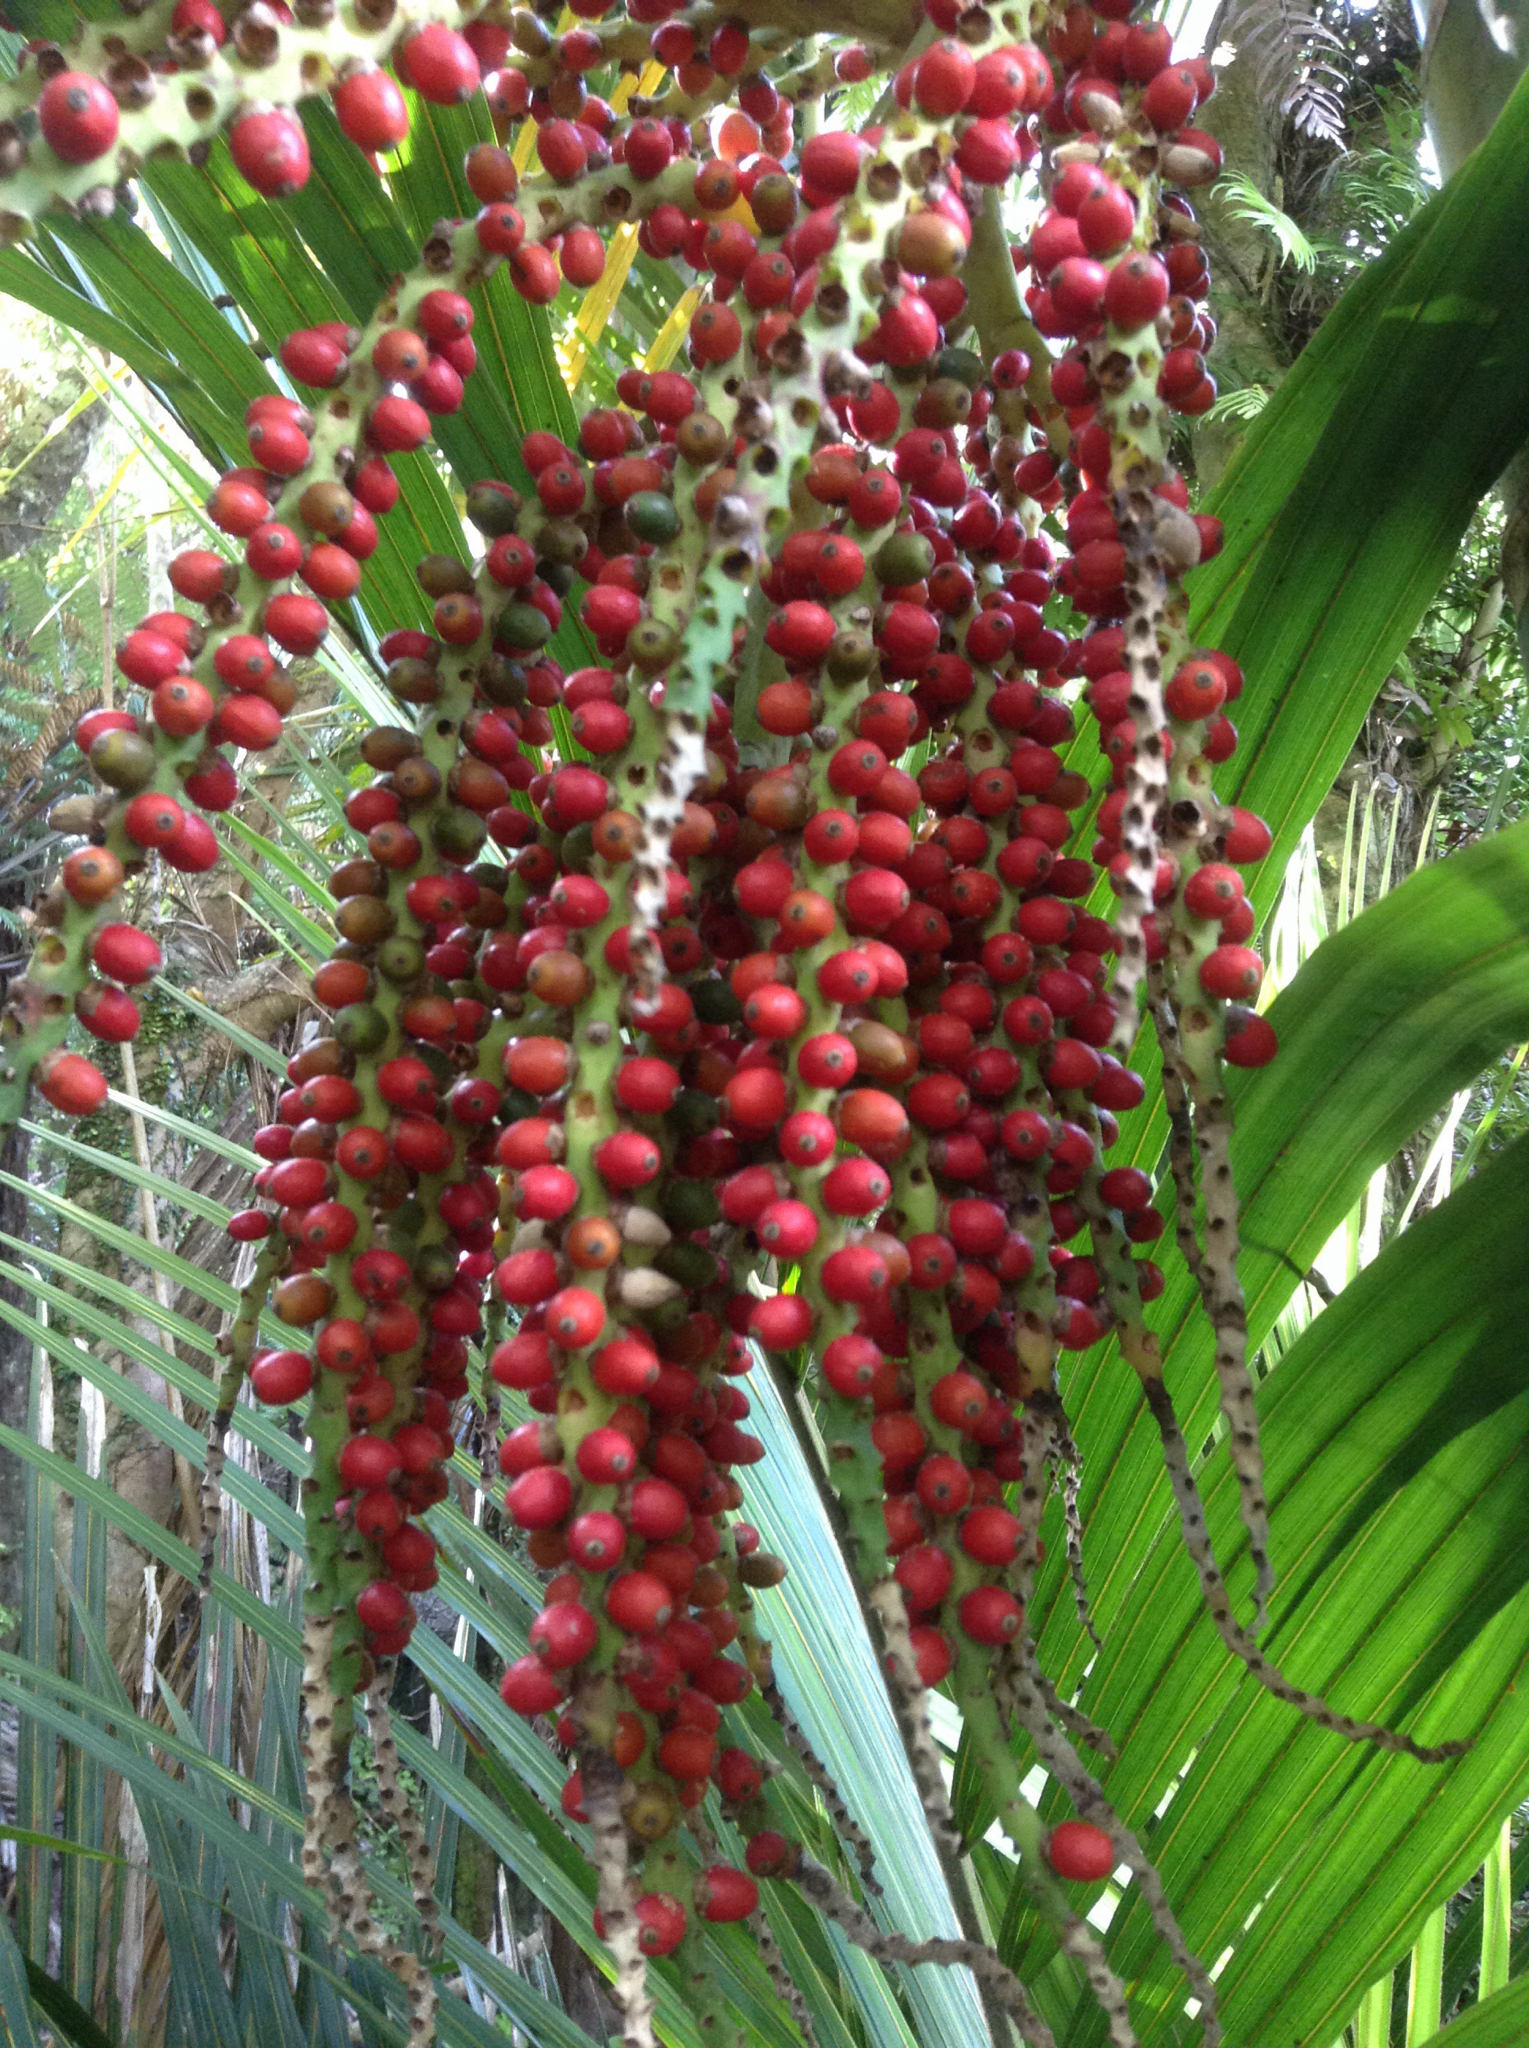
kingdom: Plantae
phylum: Tracheophyta
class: Liliopsida
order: Arecales
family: Arecaceae
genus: Rhopalostylis
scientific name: Rhopalostylis sapida
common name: Feather-duster palm
